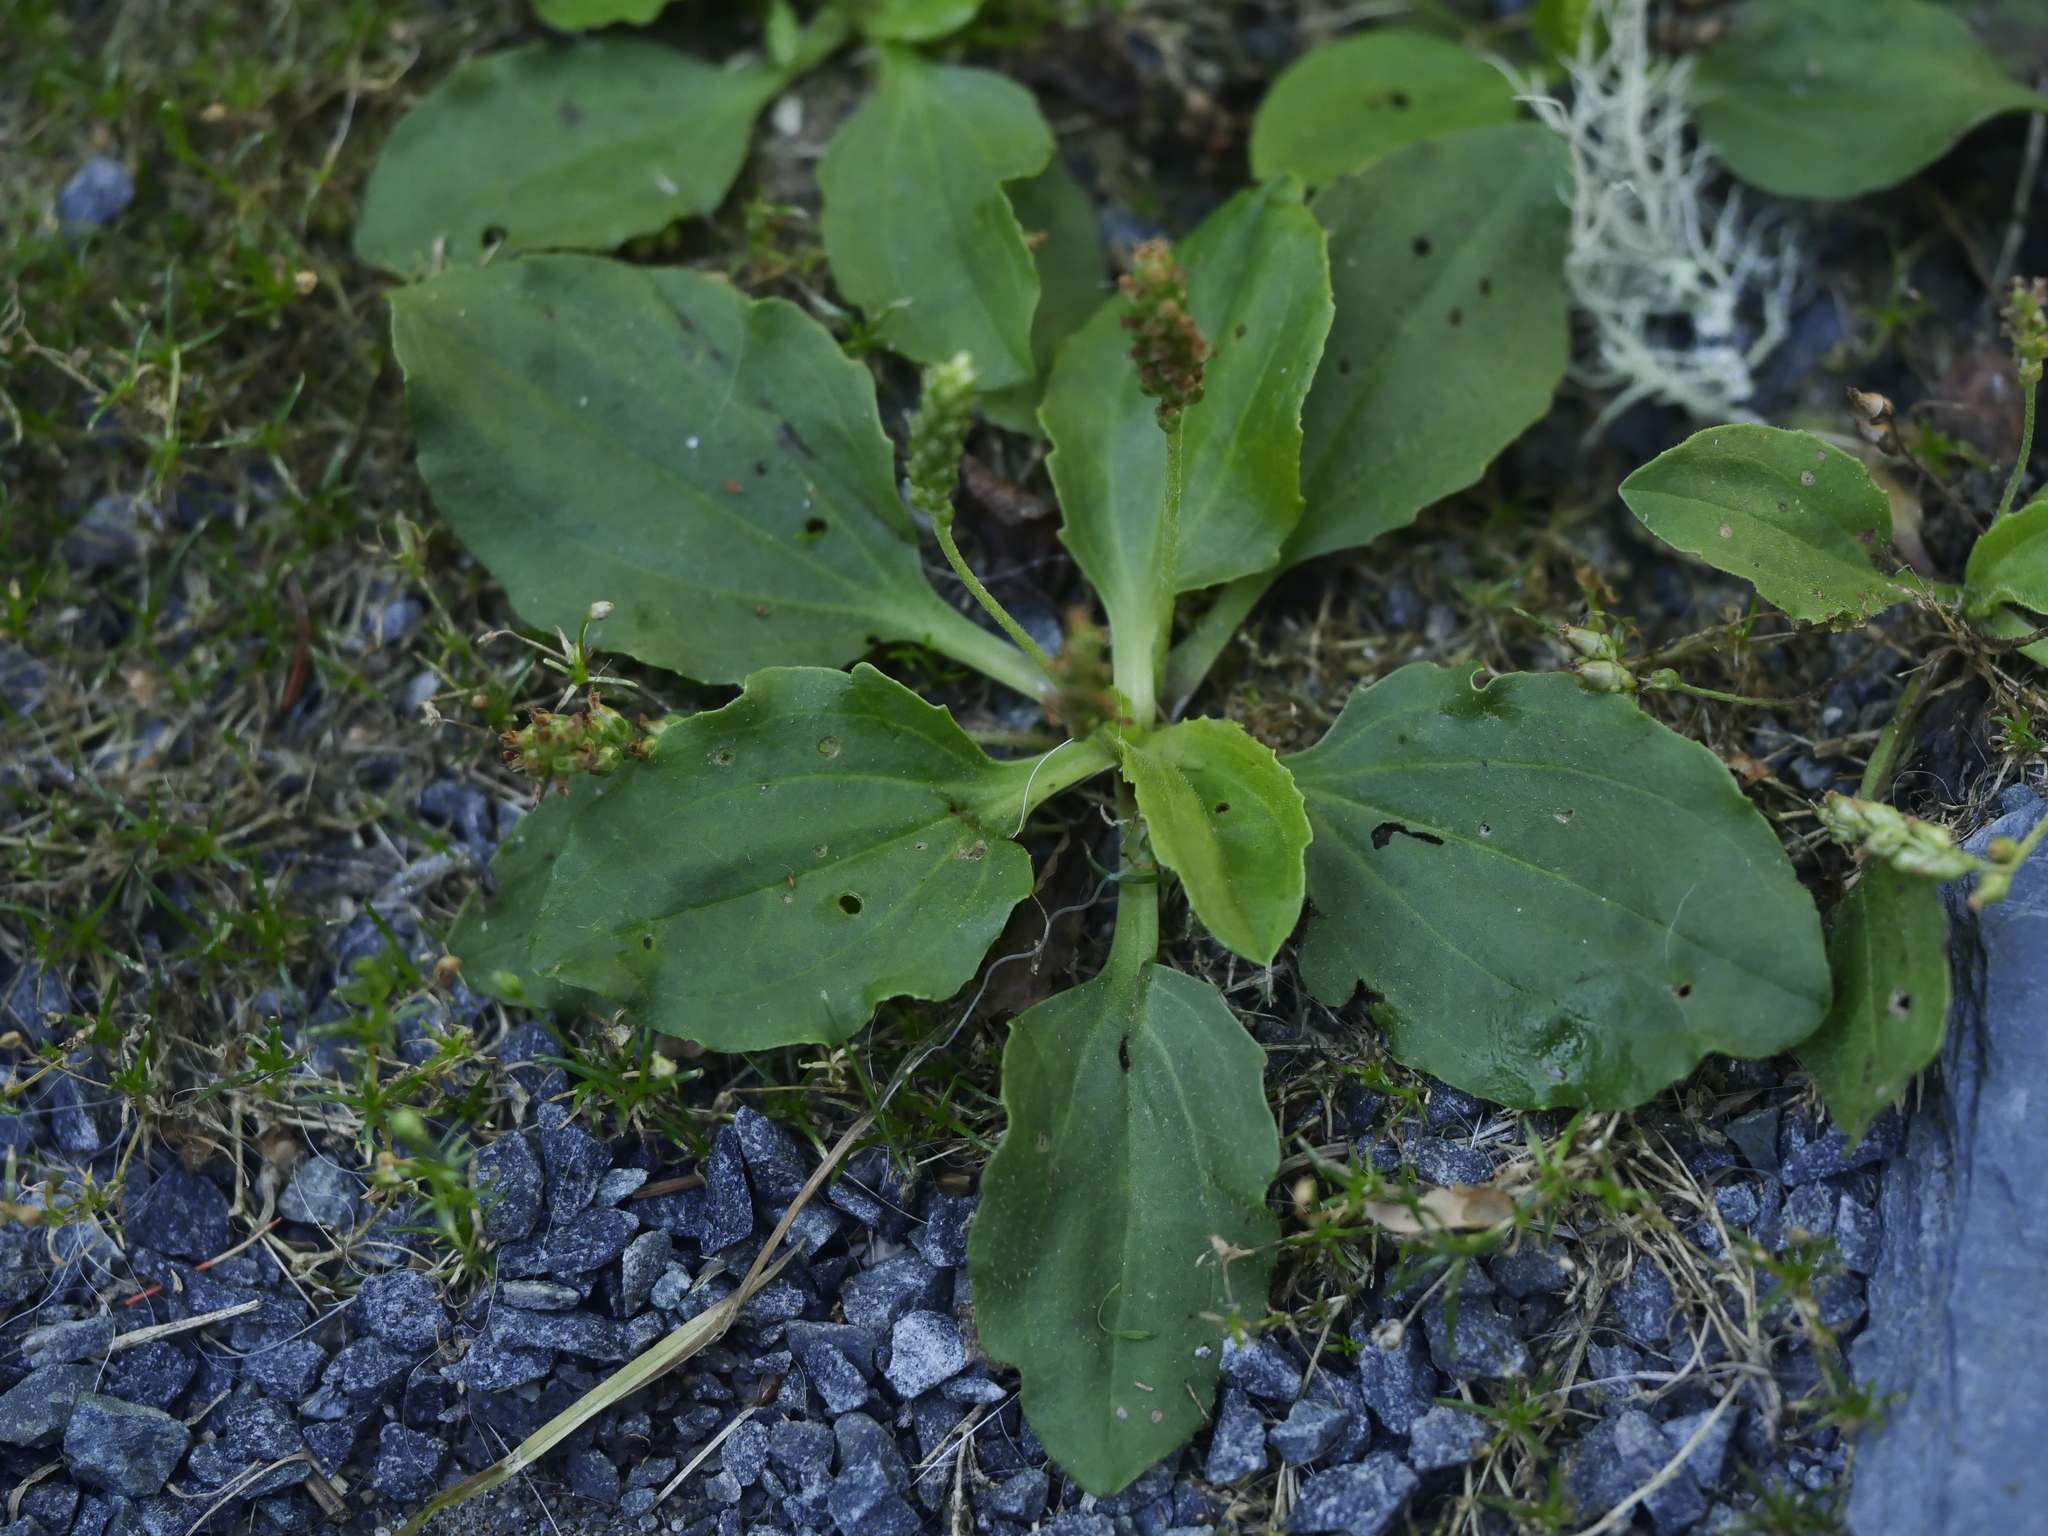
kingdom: Plantae
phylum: Tracheophyta
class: Magnoliopsida
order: Lamiales
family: Plantaginaceae
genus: Plantago
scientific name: Plantago major
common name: Common plantain
